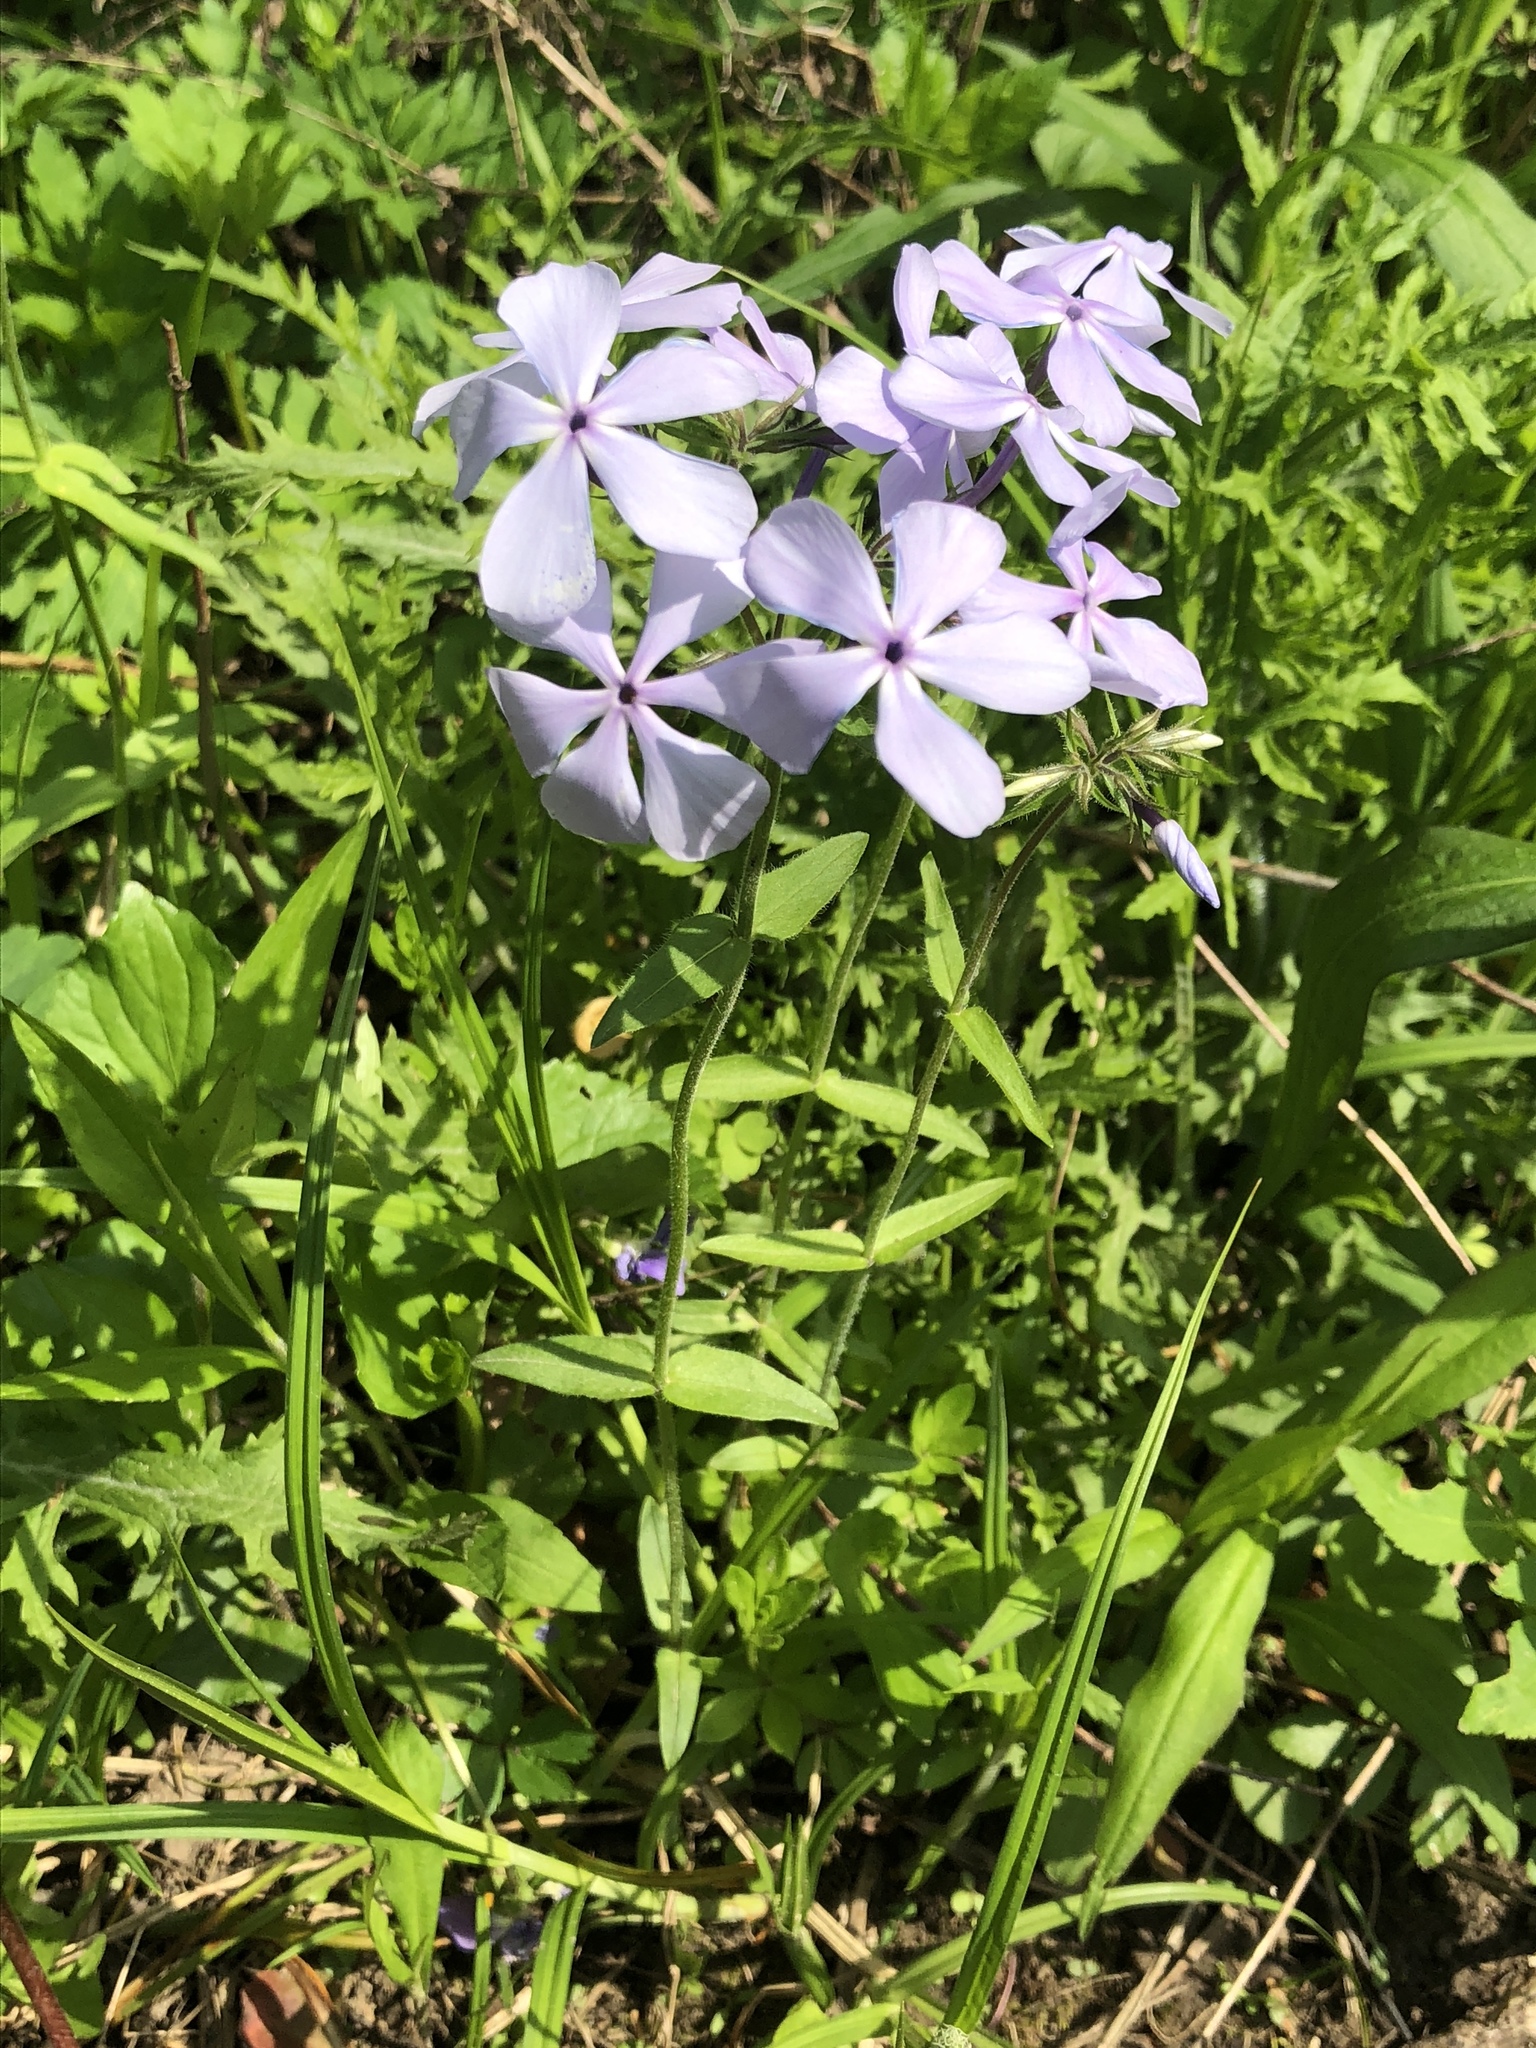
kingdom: Plantae
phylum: Tracheophyta
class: Magnoliopsida
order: Ericales
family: Polemoniaceae
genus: Phlox
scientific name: Phlox divaricata
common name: Blue phlox
